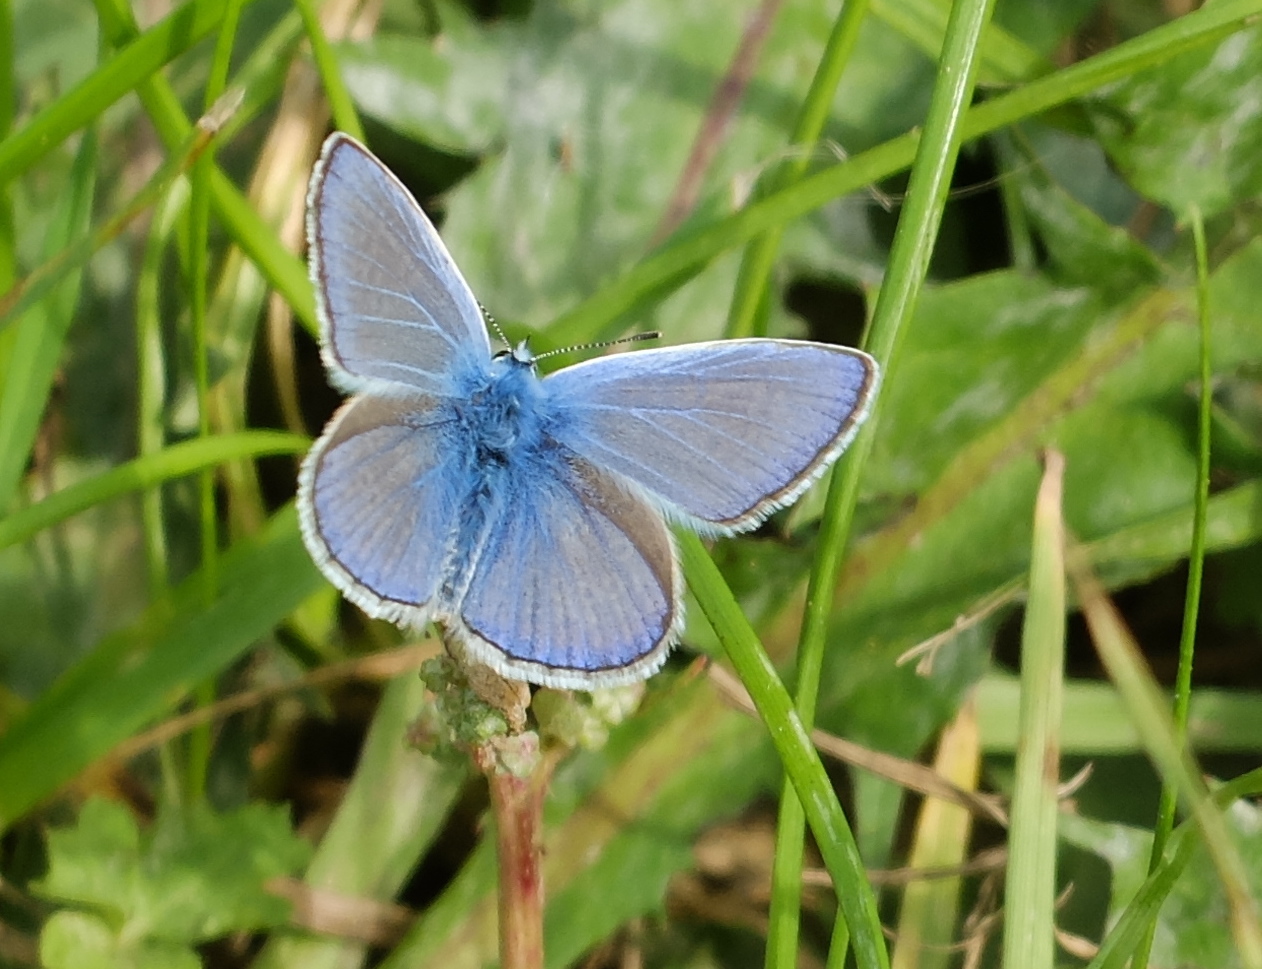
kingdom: Animalia
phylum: Arthropoda
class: Insecta
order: Lepidoptera
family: Lycaenidae
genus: Polyommatus
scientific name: Polyommatus icarus
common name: Common blue
